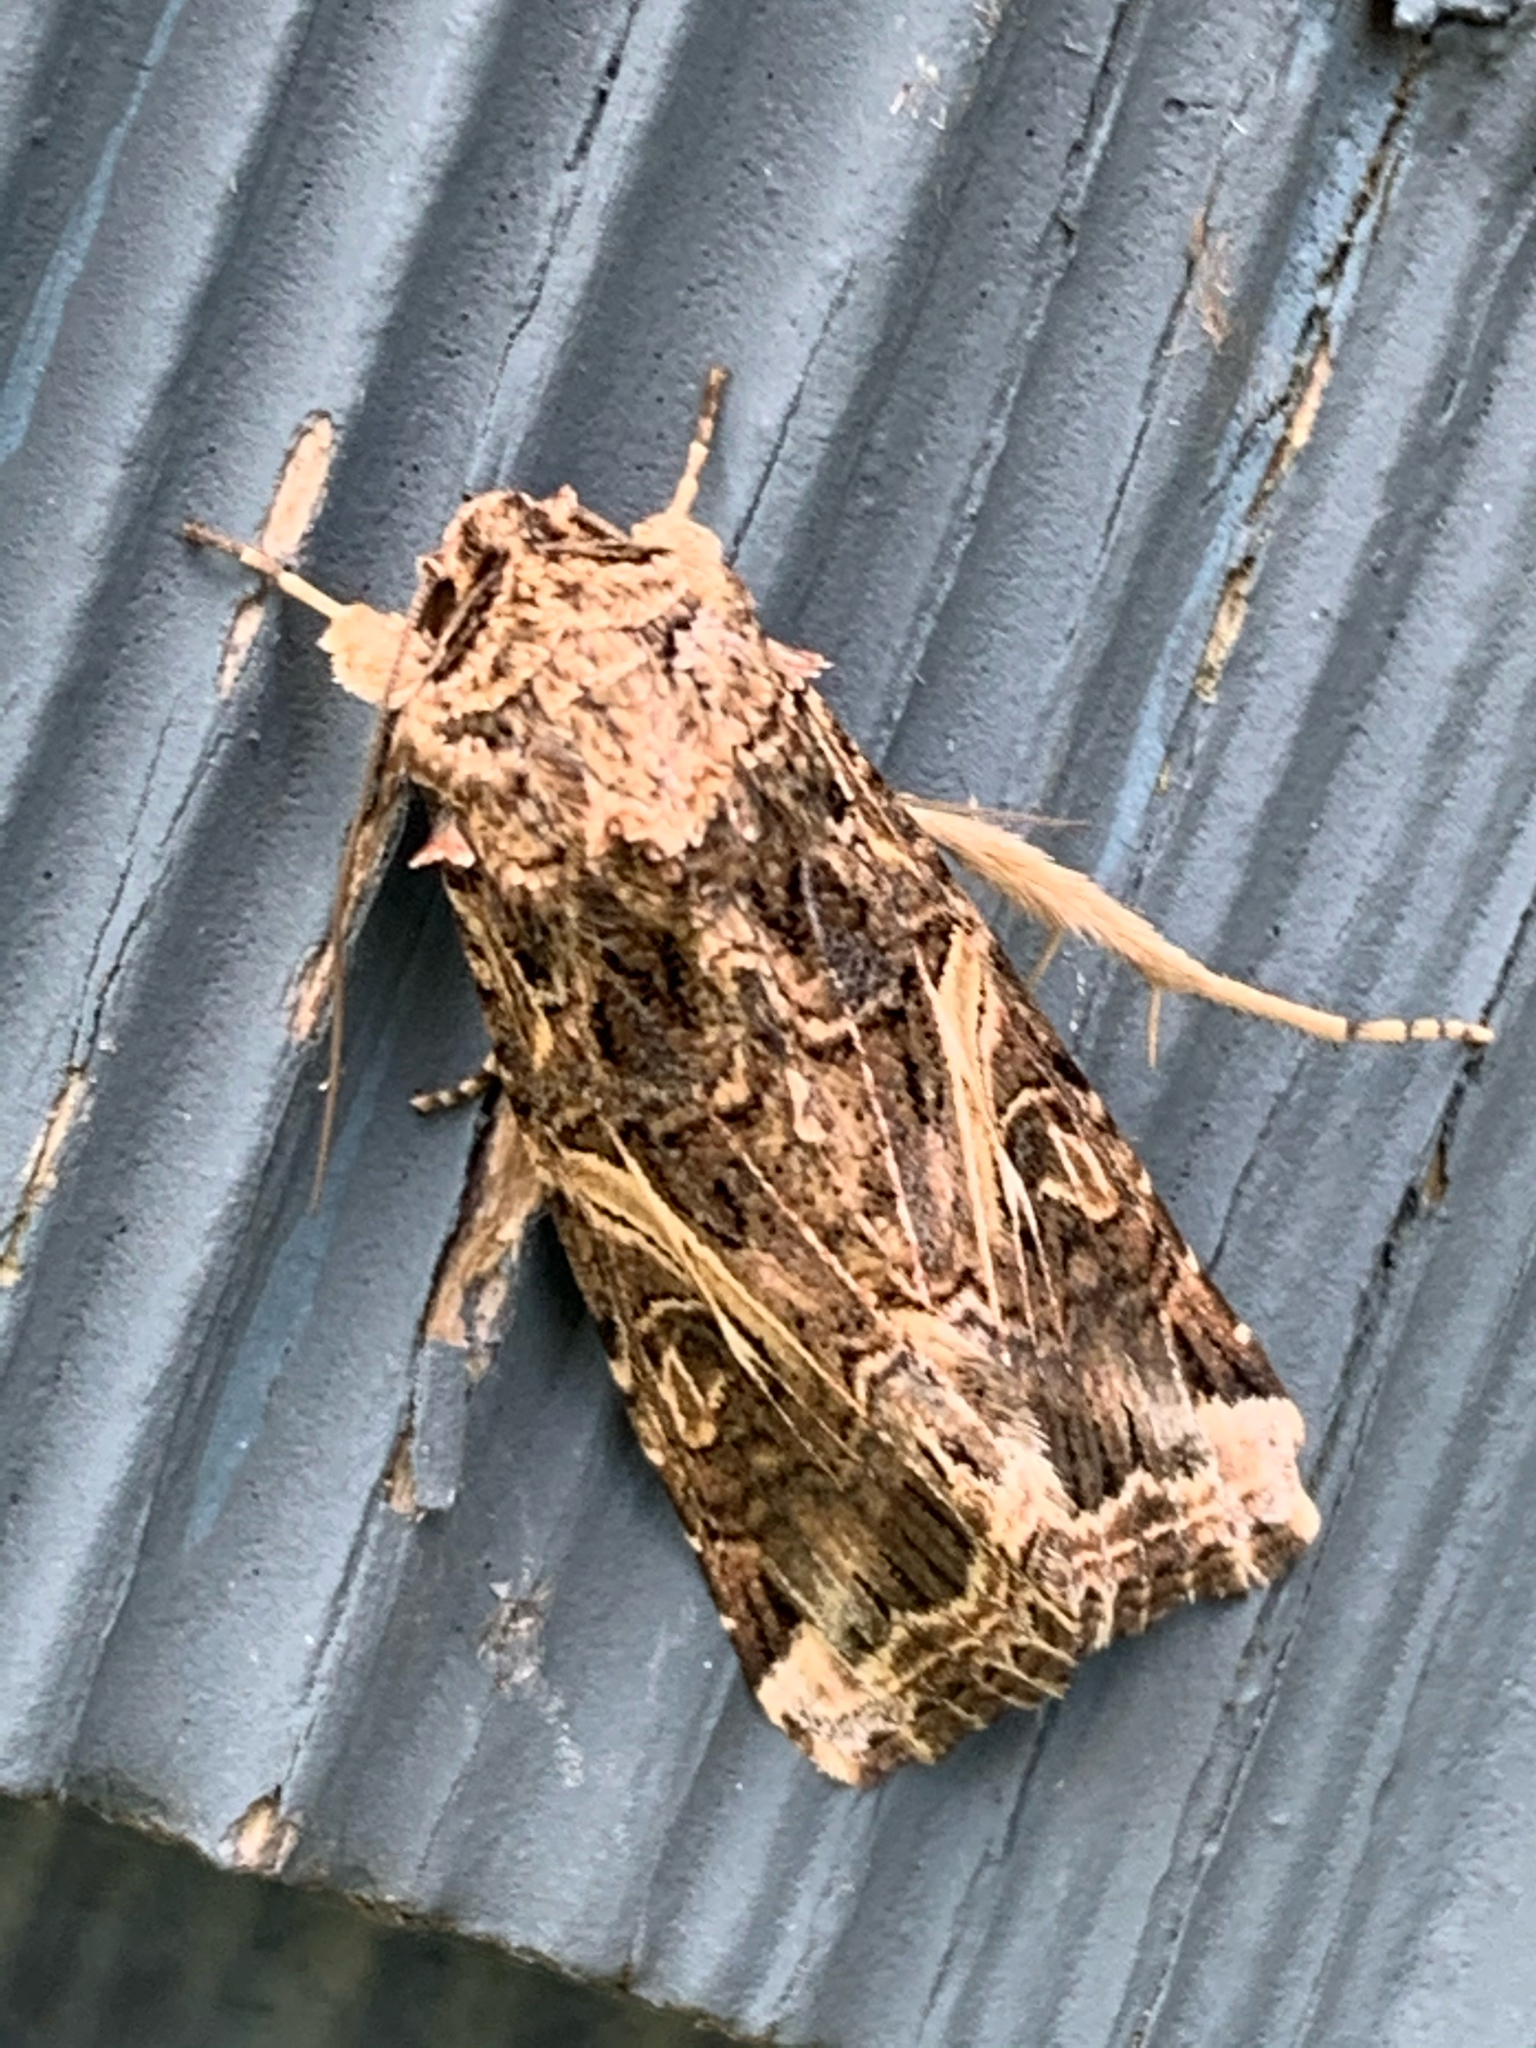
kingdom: Animalia
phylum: Arthropoda
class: Insecta
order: Lepidoptera
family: Noctuidae
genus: Spodoptera
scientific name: Spodoptera ornithogalli
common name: Yellow-striped armyworm
